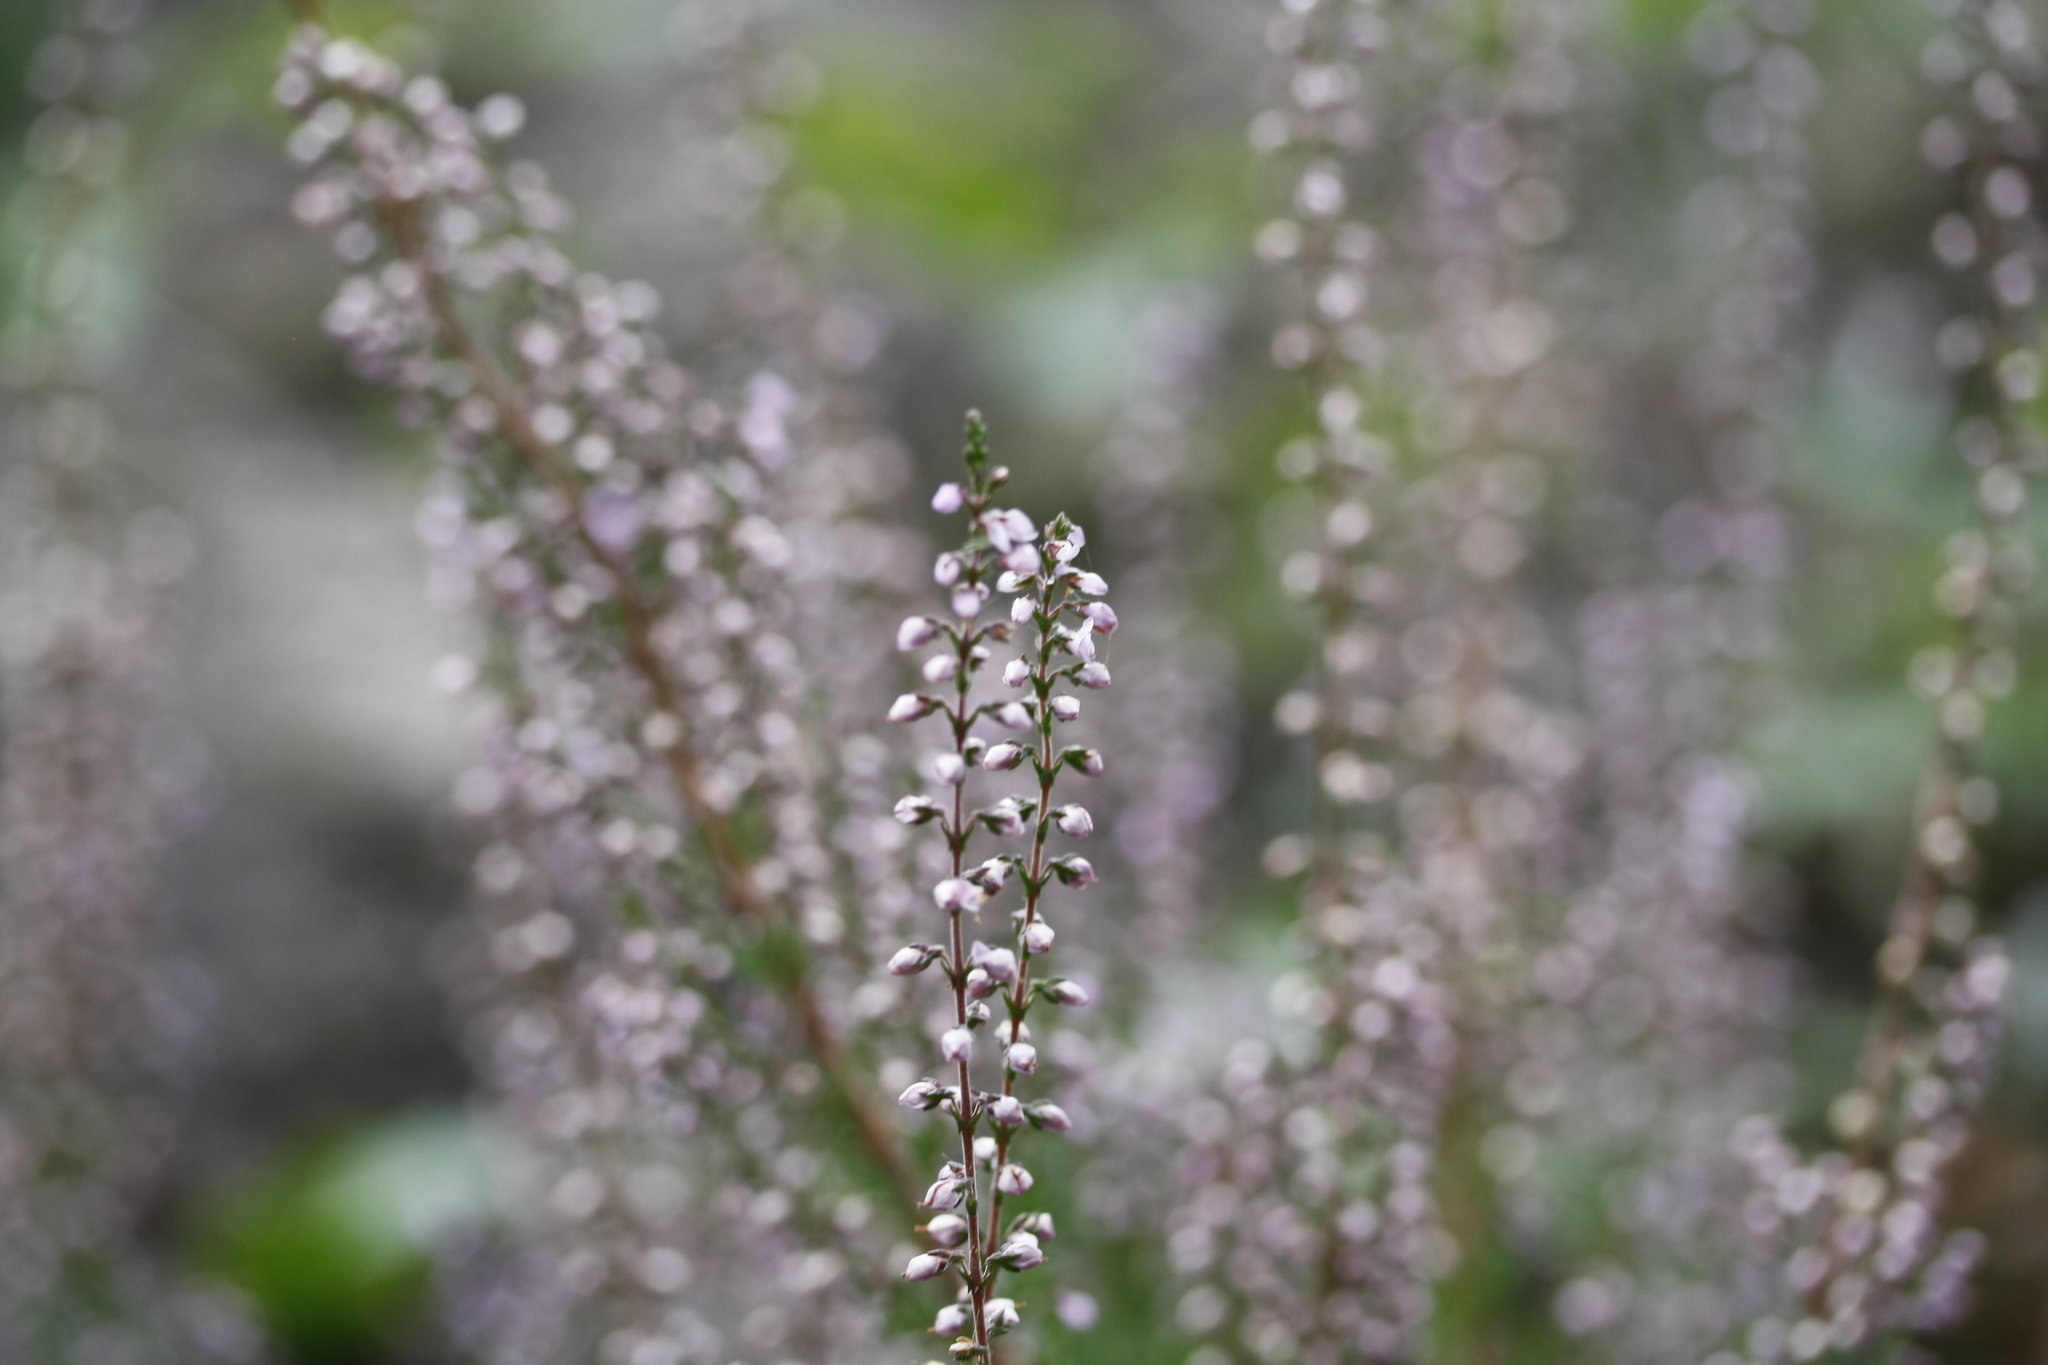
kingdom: Plantae
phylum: Tracheophyta
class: Magnoliopsida
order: Ericales
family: Ericaceae
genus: Calluna
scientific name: Calluna vulgaris
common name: Heather
